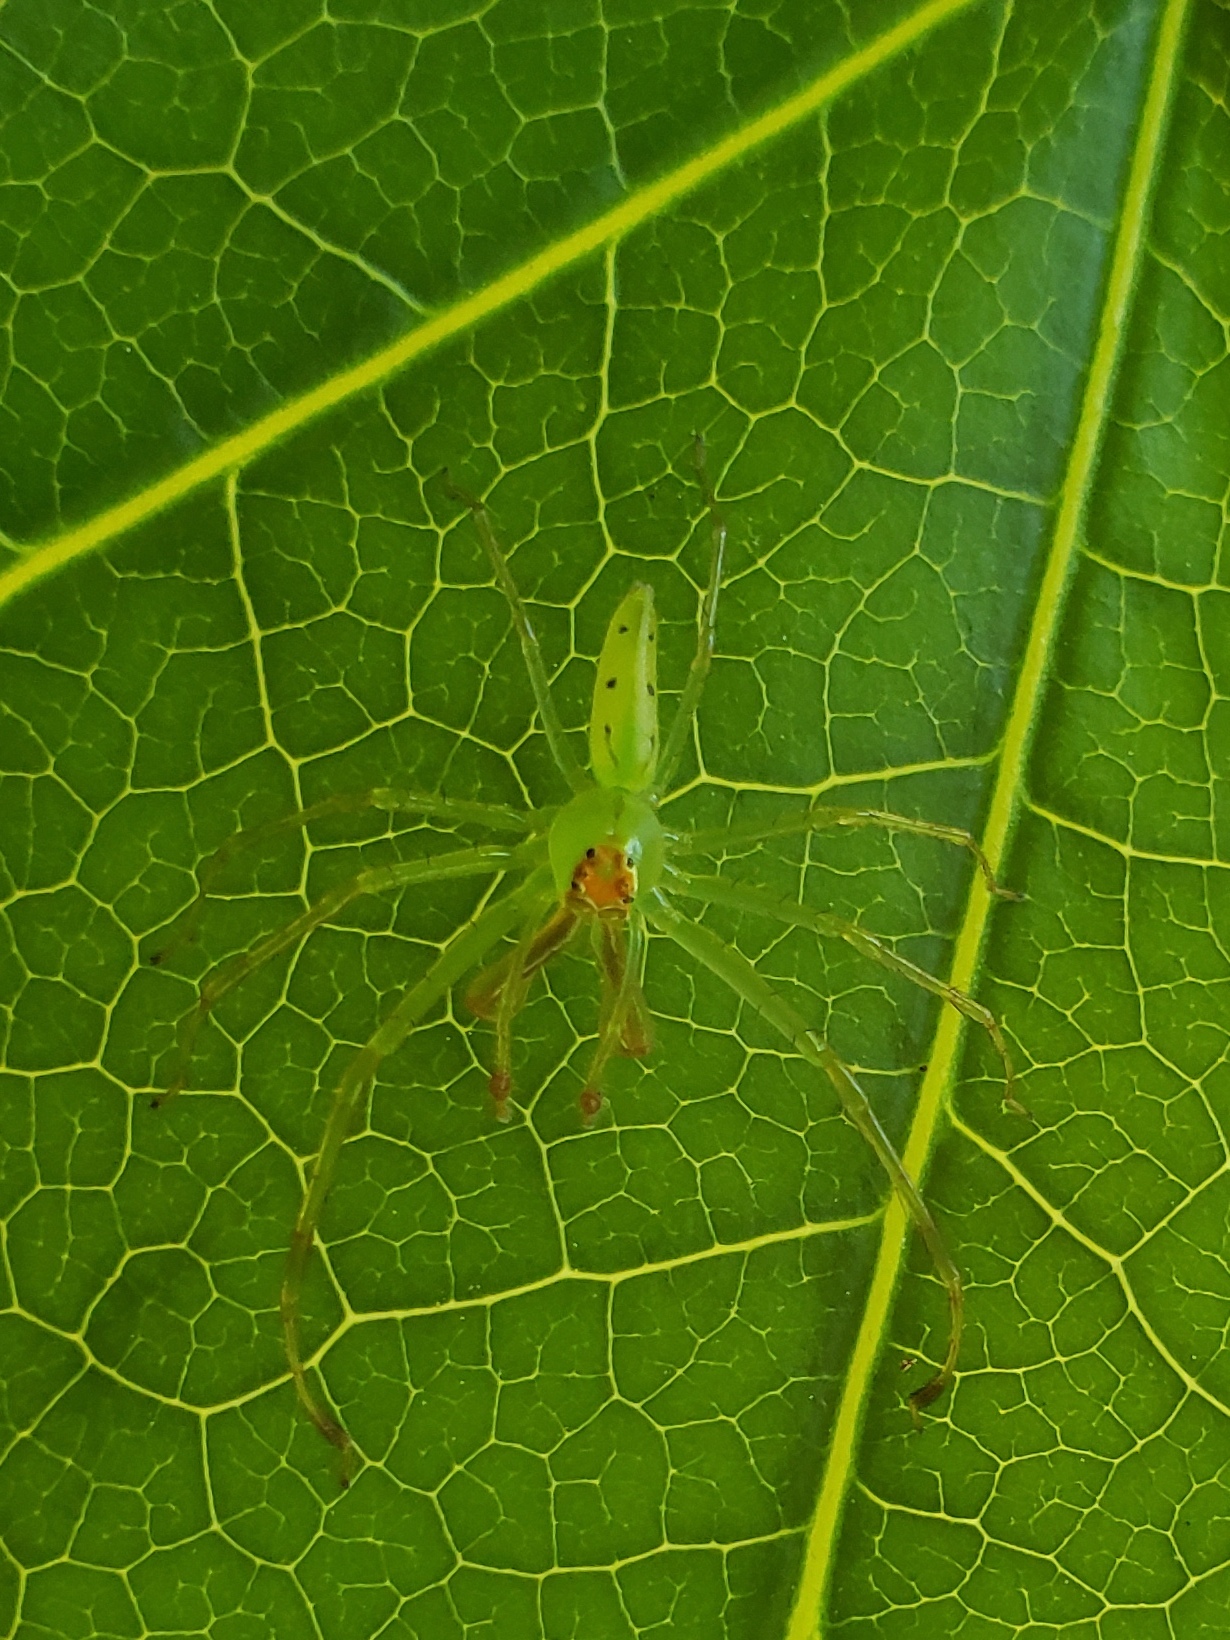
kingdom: Animalia
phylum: Arthropoda
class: Arachnida
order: Araneae
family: Salticidae
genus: Lyssomanes
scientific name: Lyssomanes viridis
